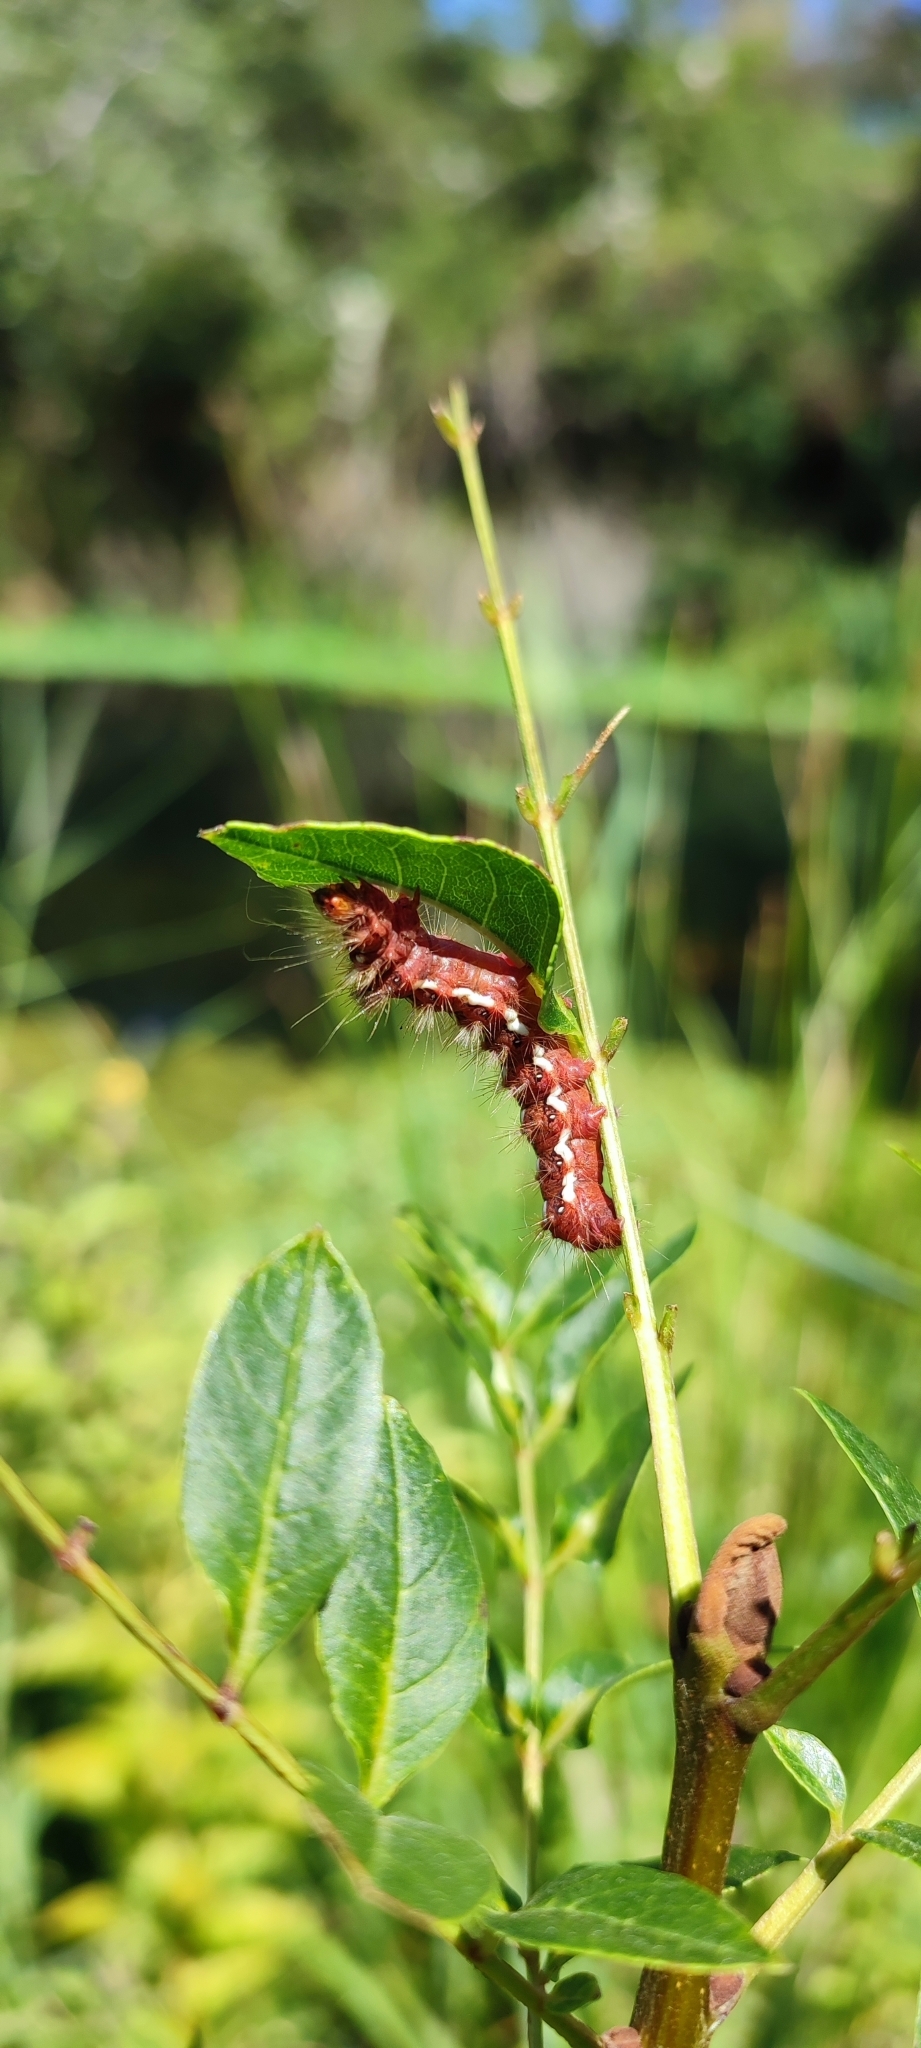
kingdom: Animalia
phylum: Arthropoda
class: Insecta
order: Lepidoptera
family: Noctuidae
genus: Acronicta
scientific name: Acronicta rumicis
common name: Knot grass
